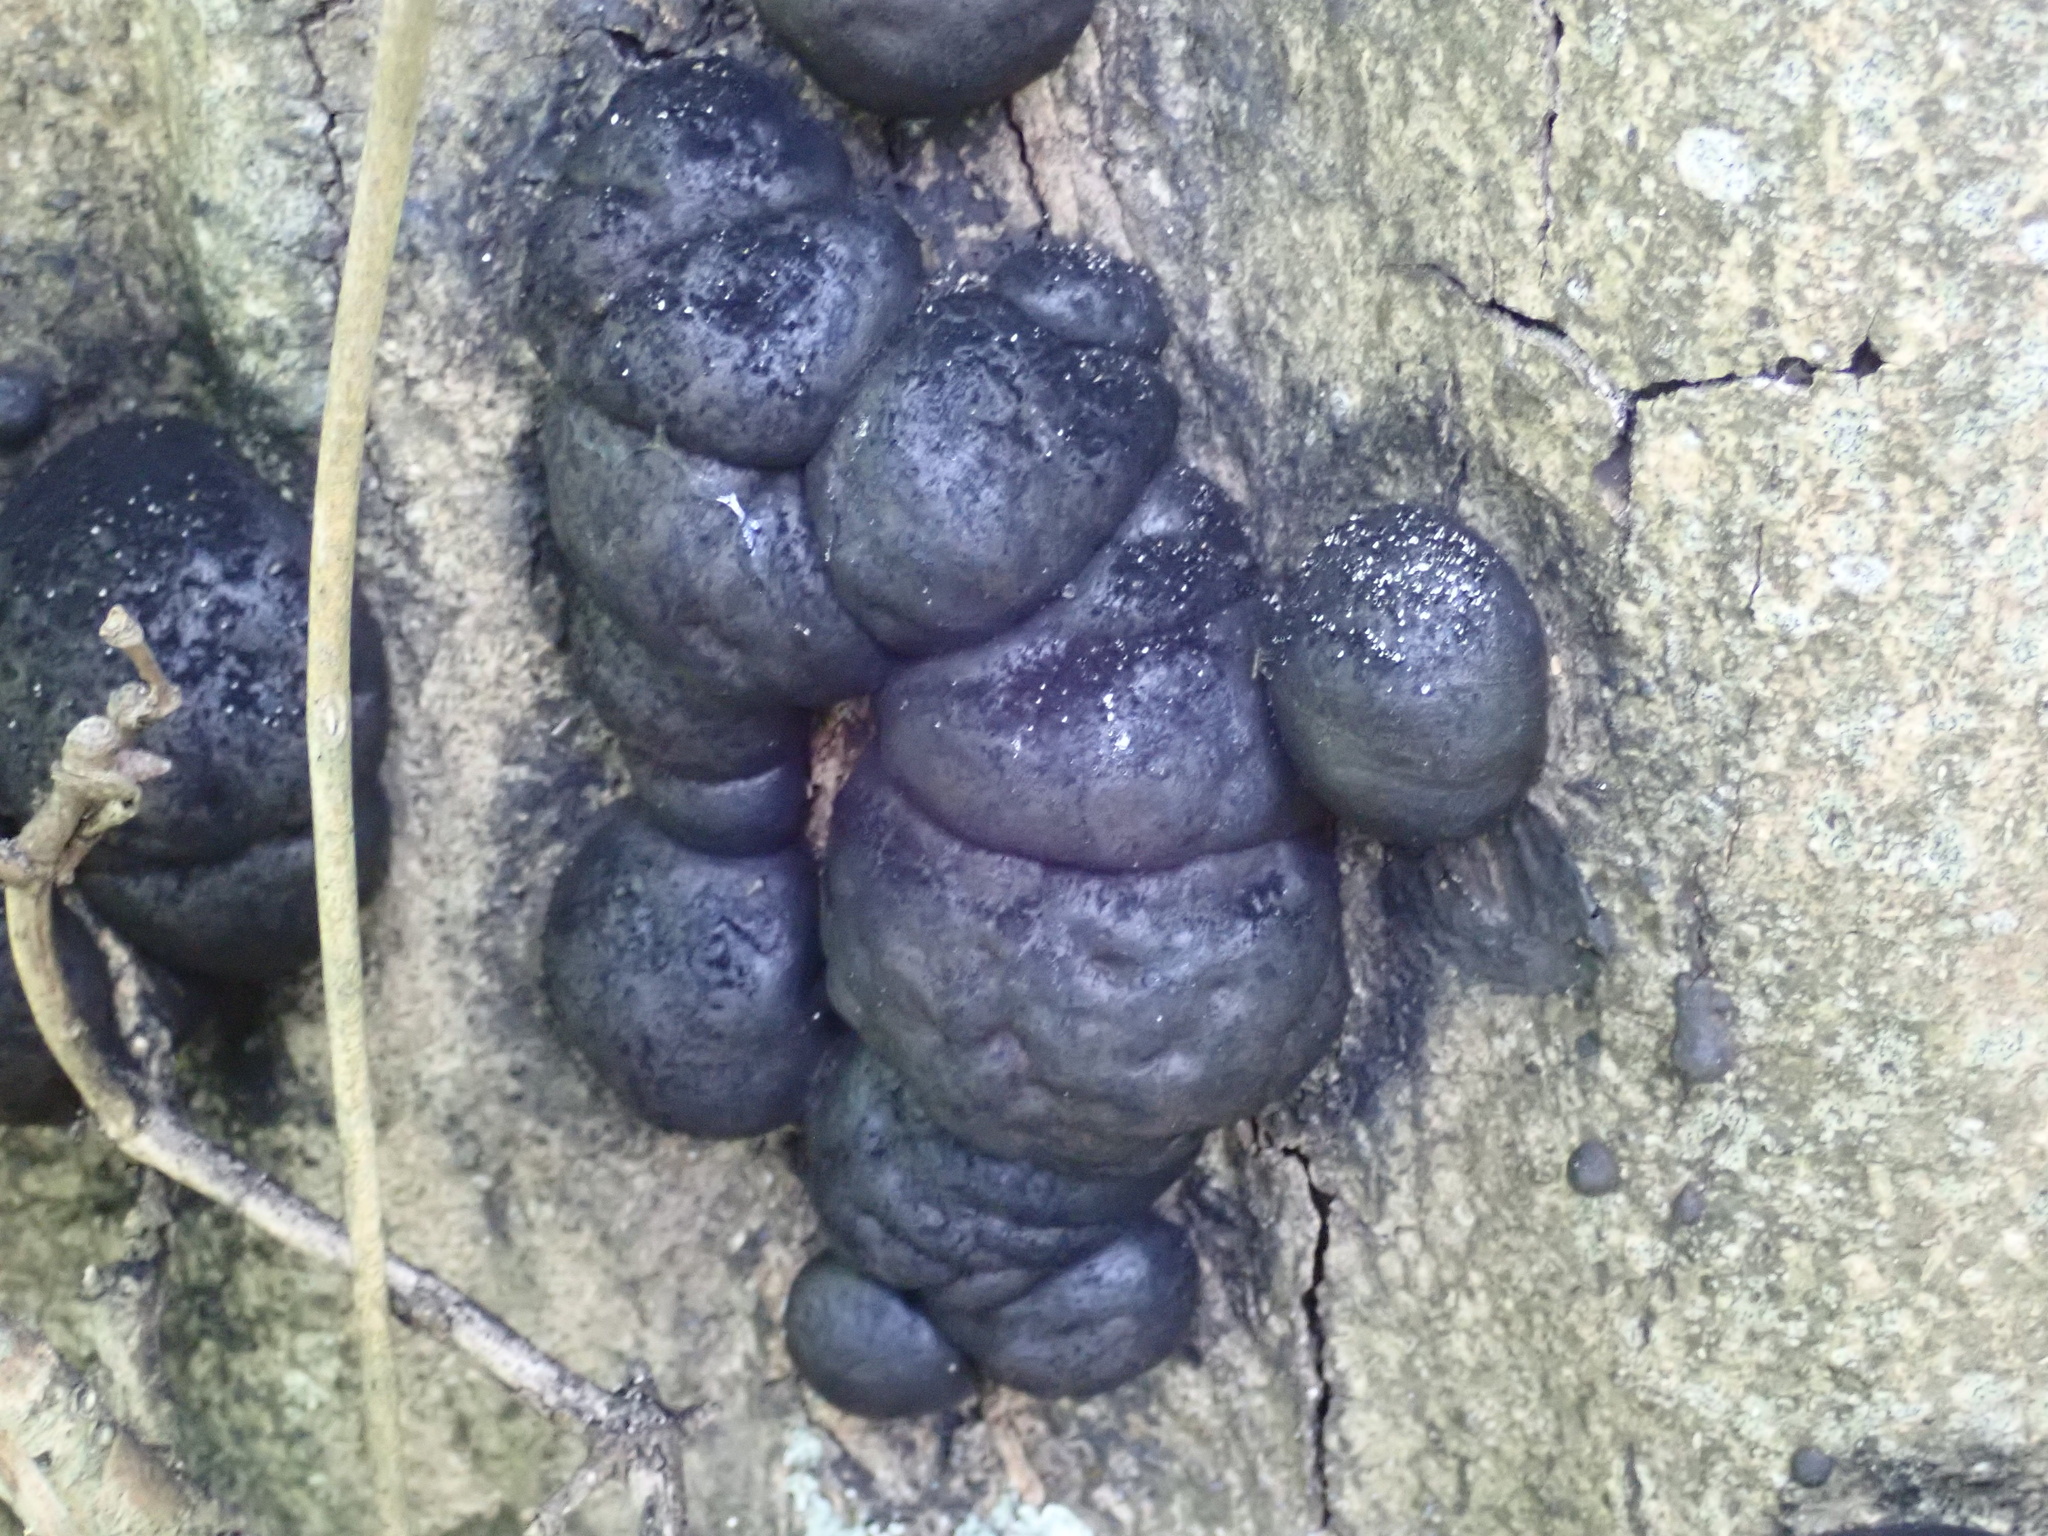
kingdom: Fungi
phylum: Ascomycota
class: Sordariomycetes
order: Xylariales
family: Hypoxylaceae
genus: Daldinia
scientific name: Daldinia concentrica
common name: Cramp balls
